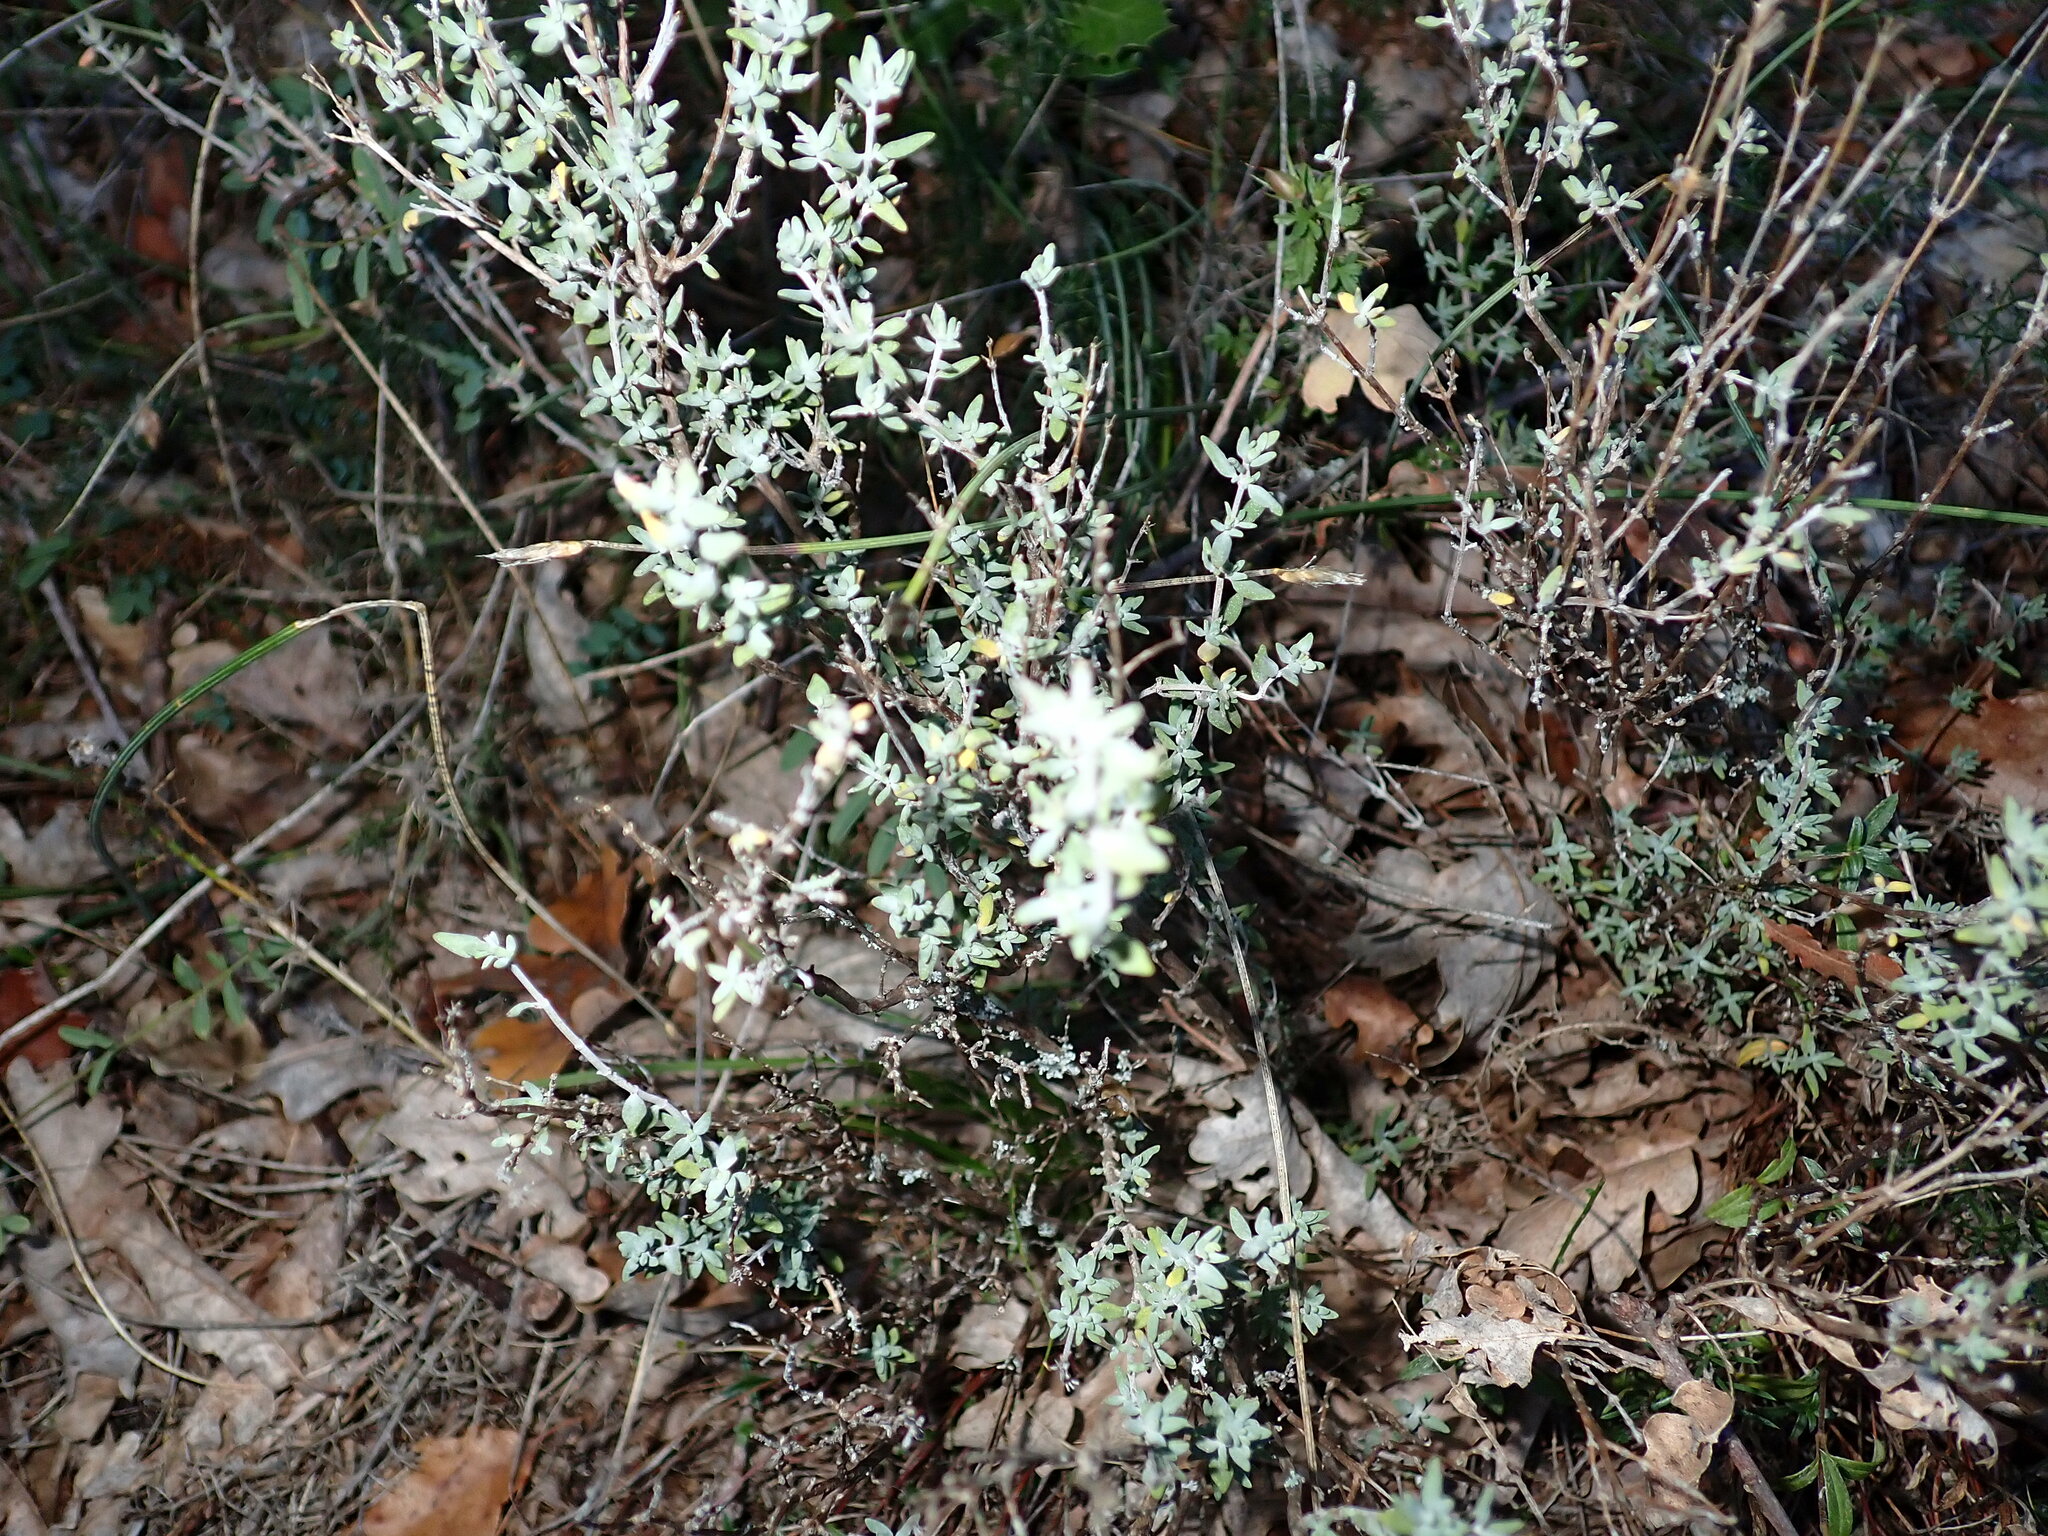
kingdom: Plantae
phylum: Tracheophyta
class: Magnoliopsida
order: Lamiales
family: Lamiaceae
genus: Thymus
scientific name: Thymus vulgaris
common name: Garden thyme
